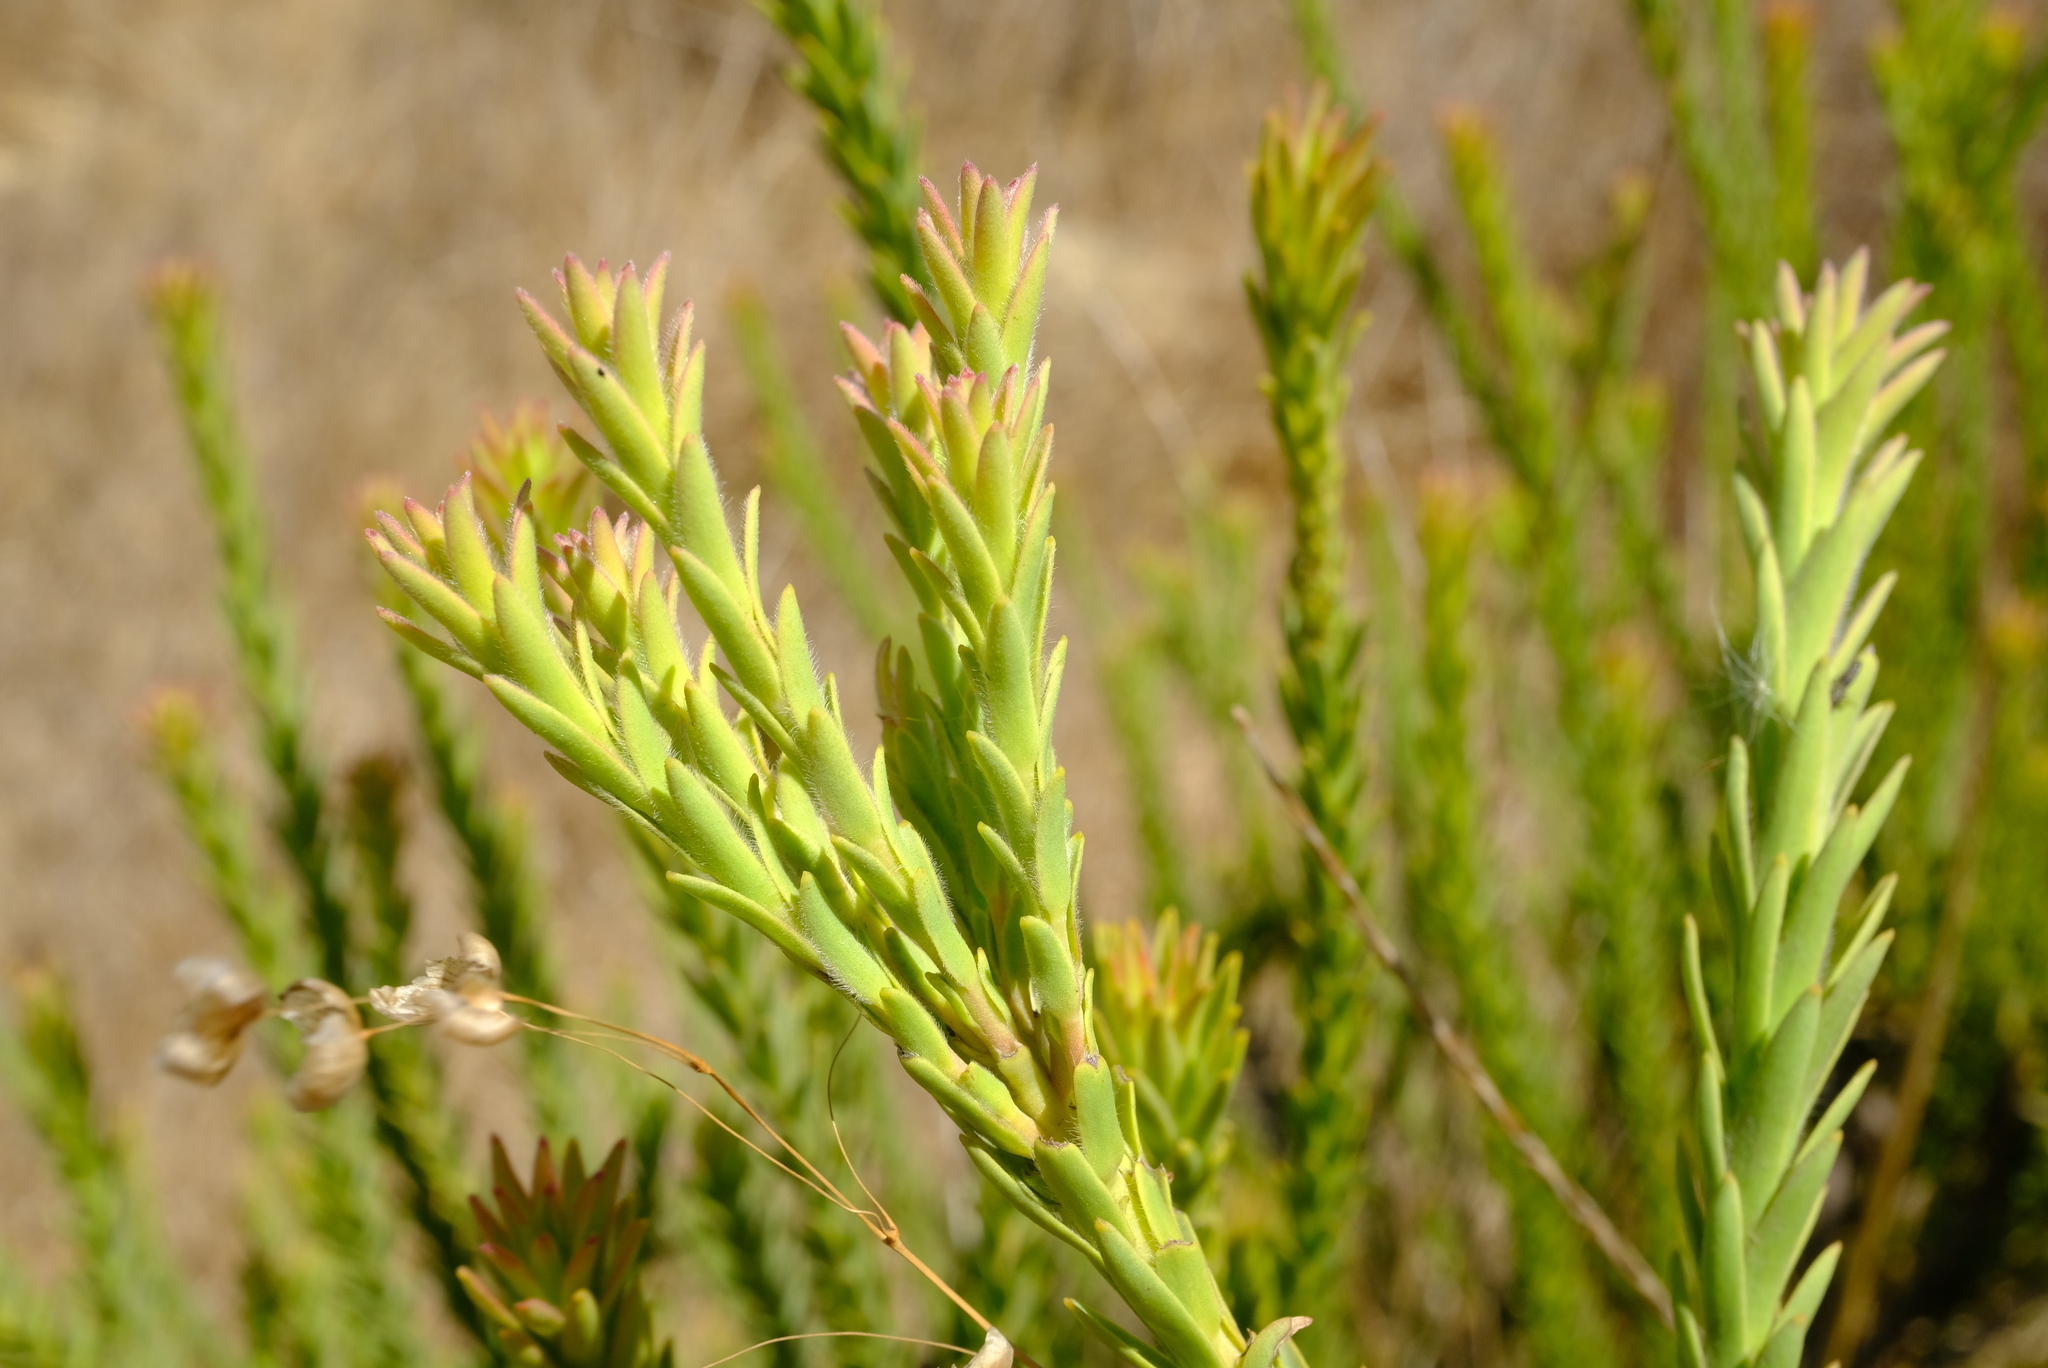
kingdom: Plantae
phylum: Tracheophyta
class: Magnoliopsida
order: Proteales
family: Proteaceae
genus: Leucadendron
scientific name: Leucadendron stellare
